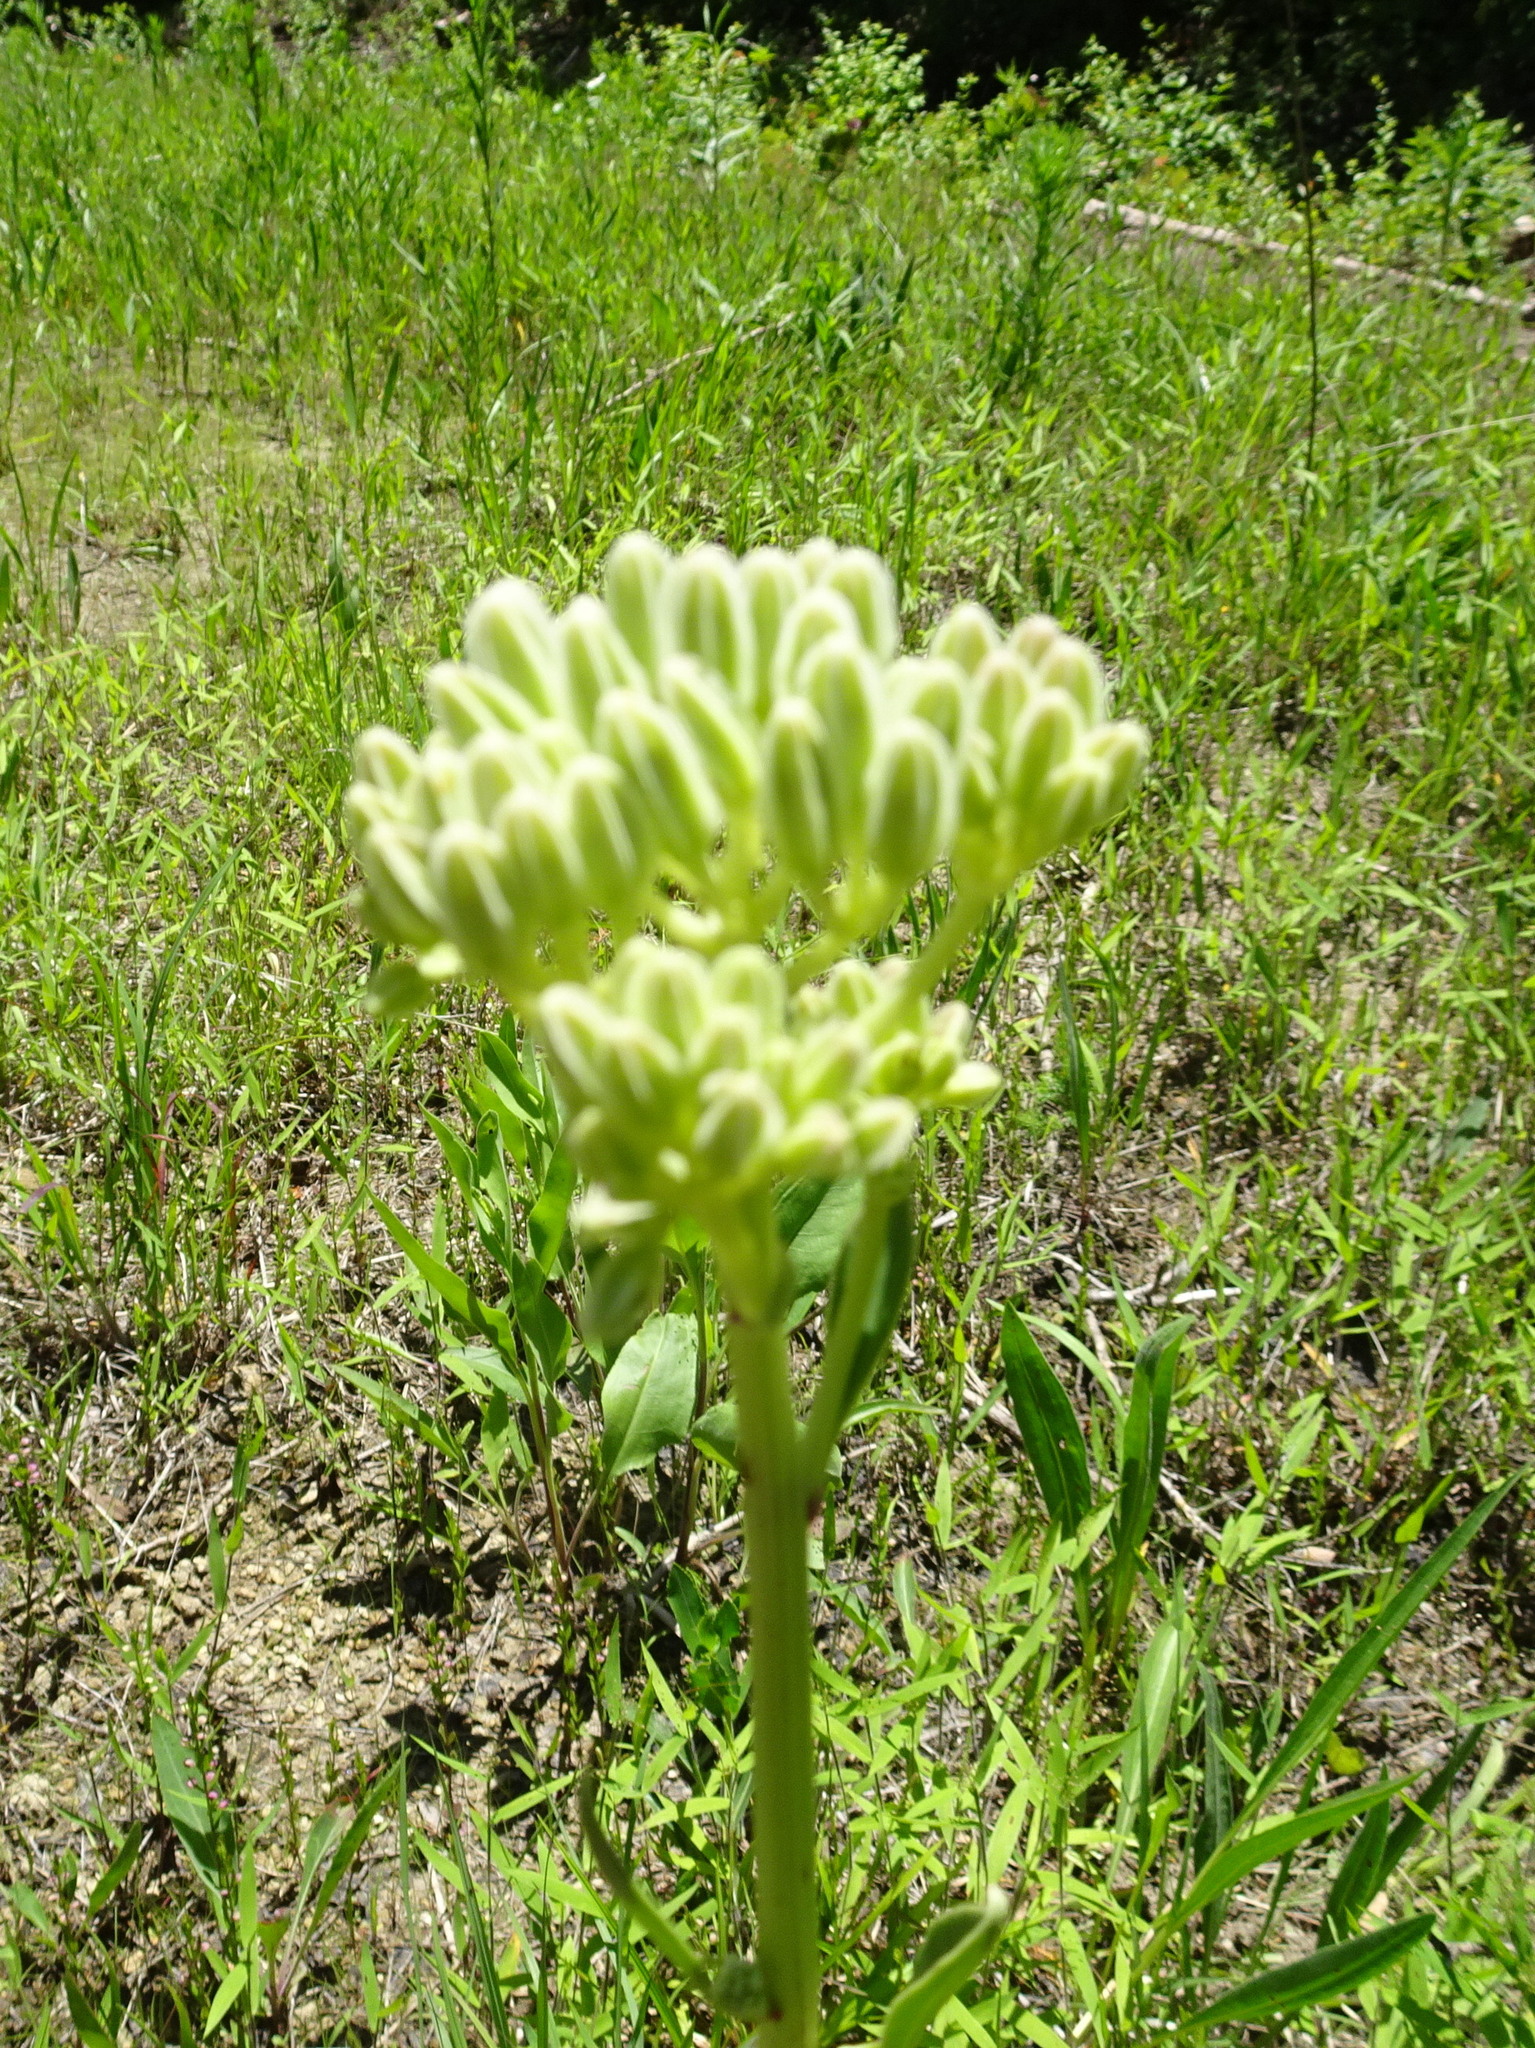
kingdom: Plantae
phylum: Tracheophyta
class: Magnoliopsida
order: Asterales
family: Asteraceae
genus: Arnoglossum
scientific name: Arnoglossum plantagineum
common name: Groove-stemmed indian-plantain
